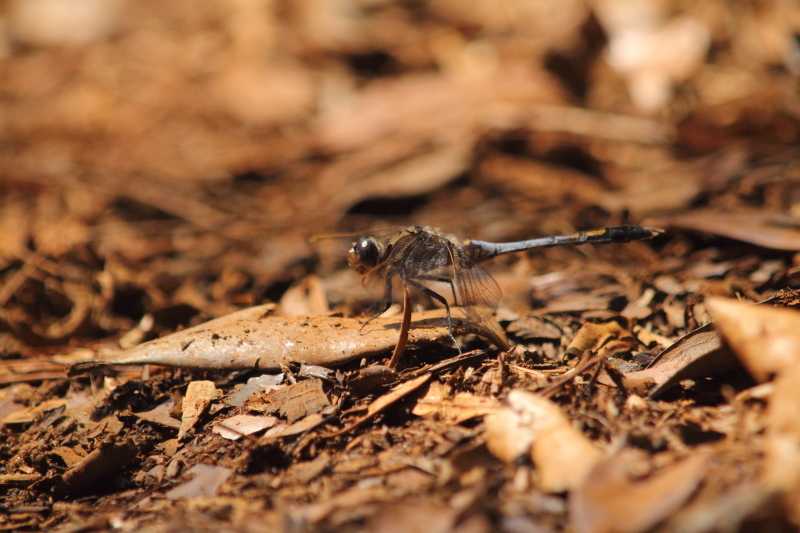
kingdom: Animalia
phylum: Arthropoda
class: Insecta
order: Odonata
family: Libellulidae
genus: Orthetrum
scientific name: Orthetrum caledonicum
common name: Blue skimmer
